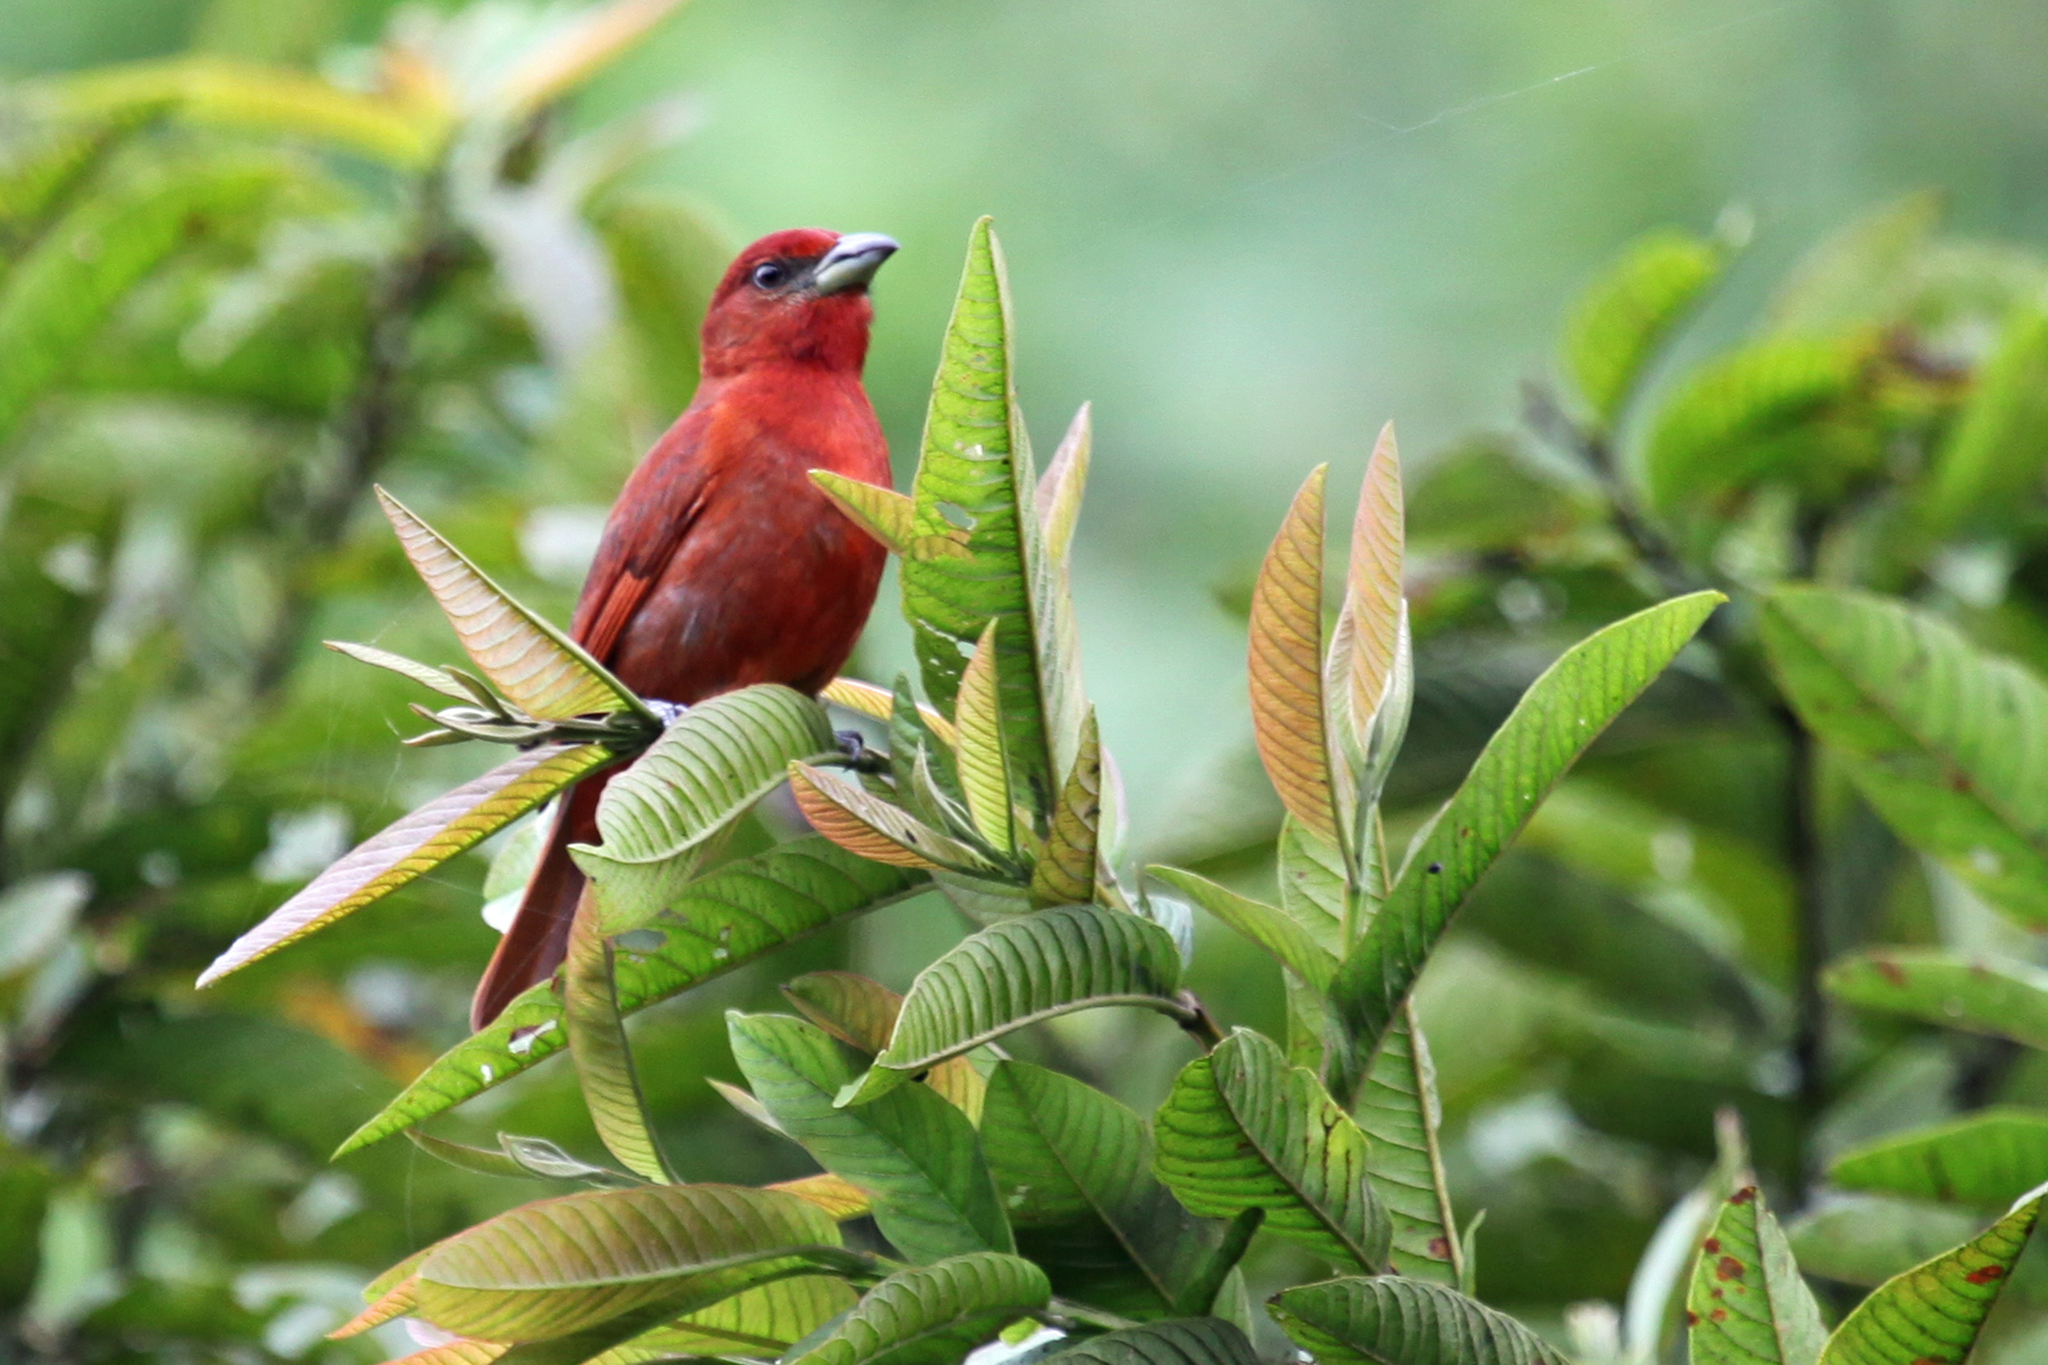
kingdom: Animalia
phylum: Chordata
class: Aves
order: Passeriformes
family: Cardinalidae
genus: Piranga
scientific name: Piranga flava
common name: Red tanager
